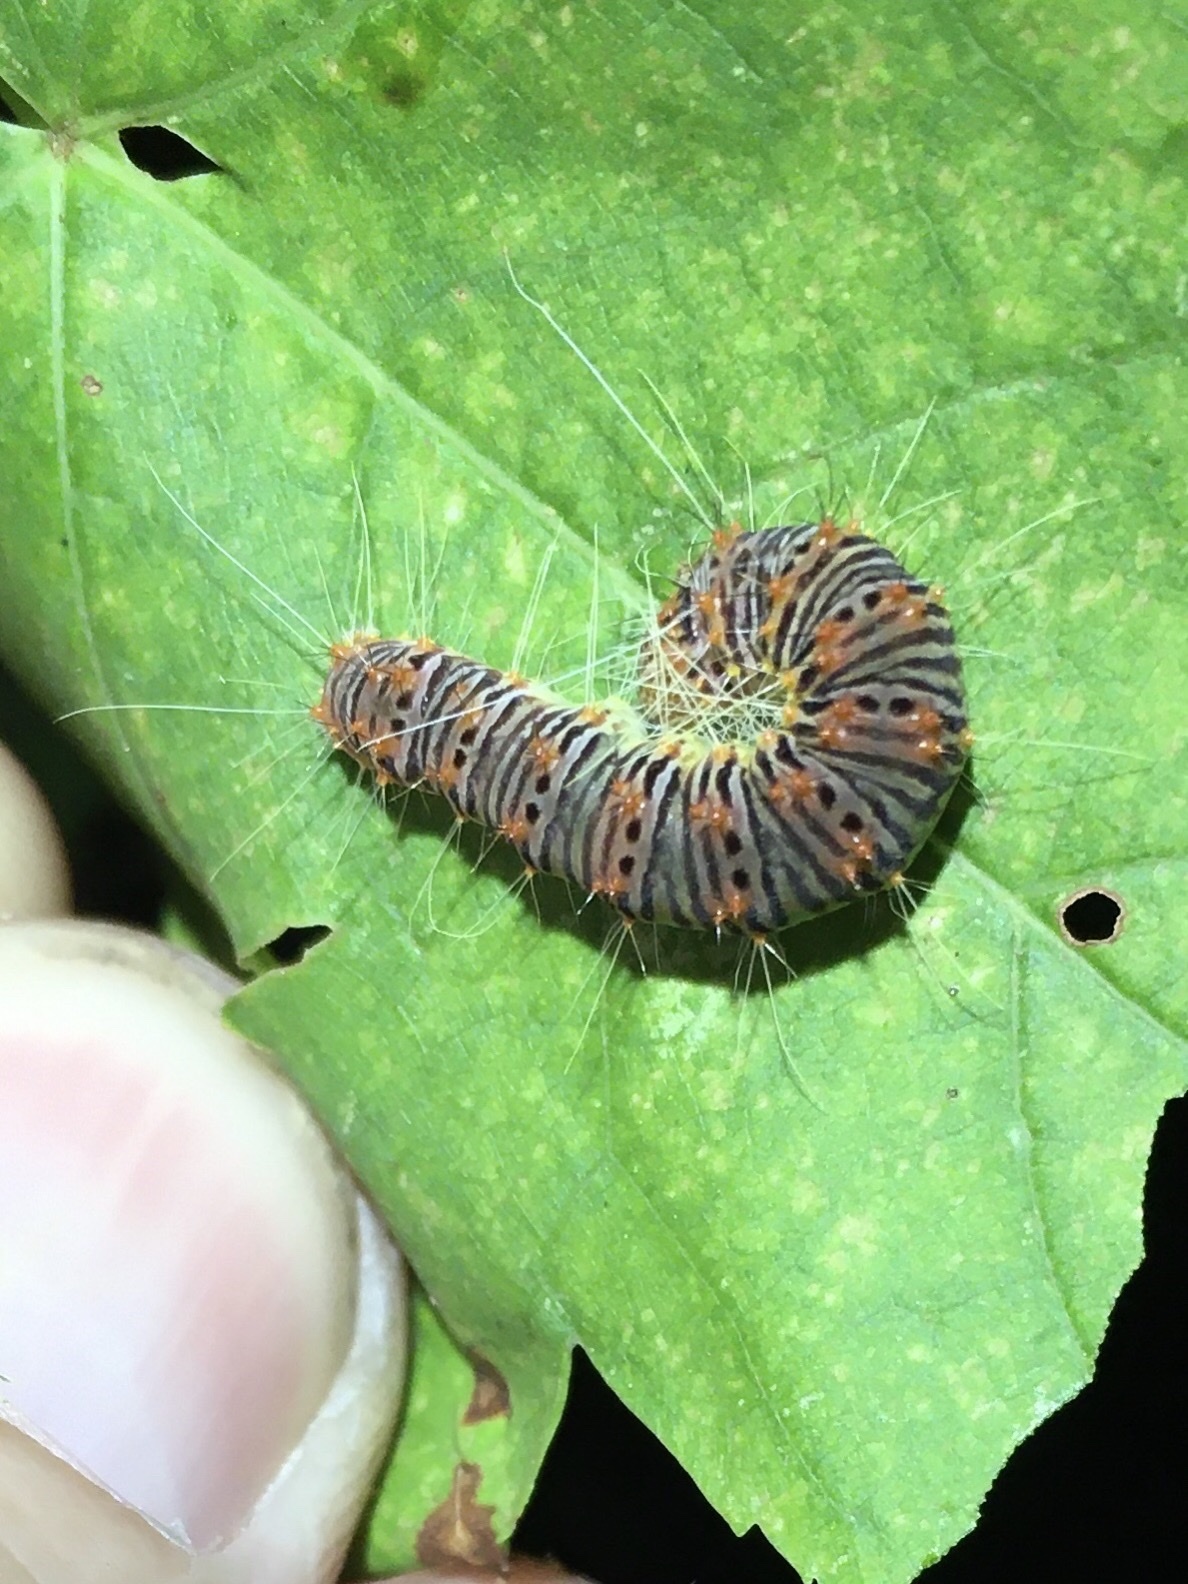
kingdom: Animalia
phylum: Arthropoda
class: Insecta
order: Lepidoptera
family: Noctuidae
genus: Acronicta
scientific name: Acronicta retardata
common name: Maple dagger
